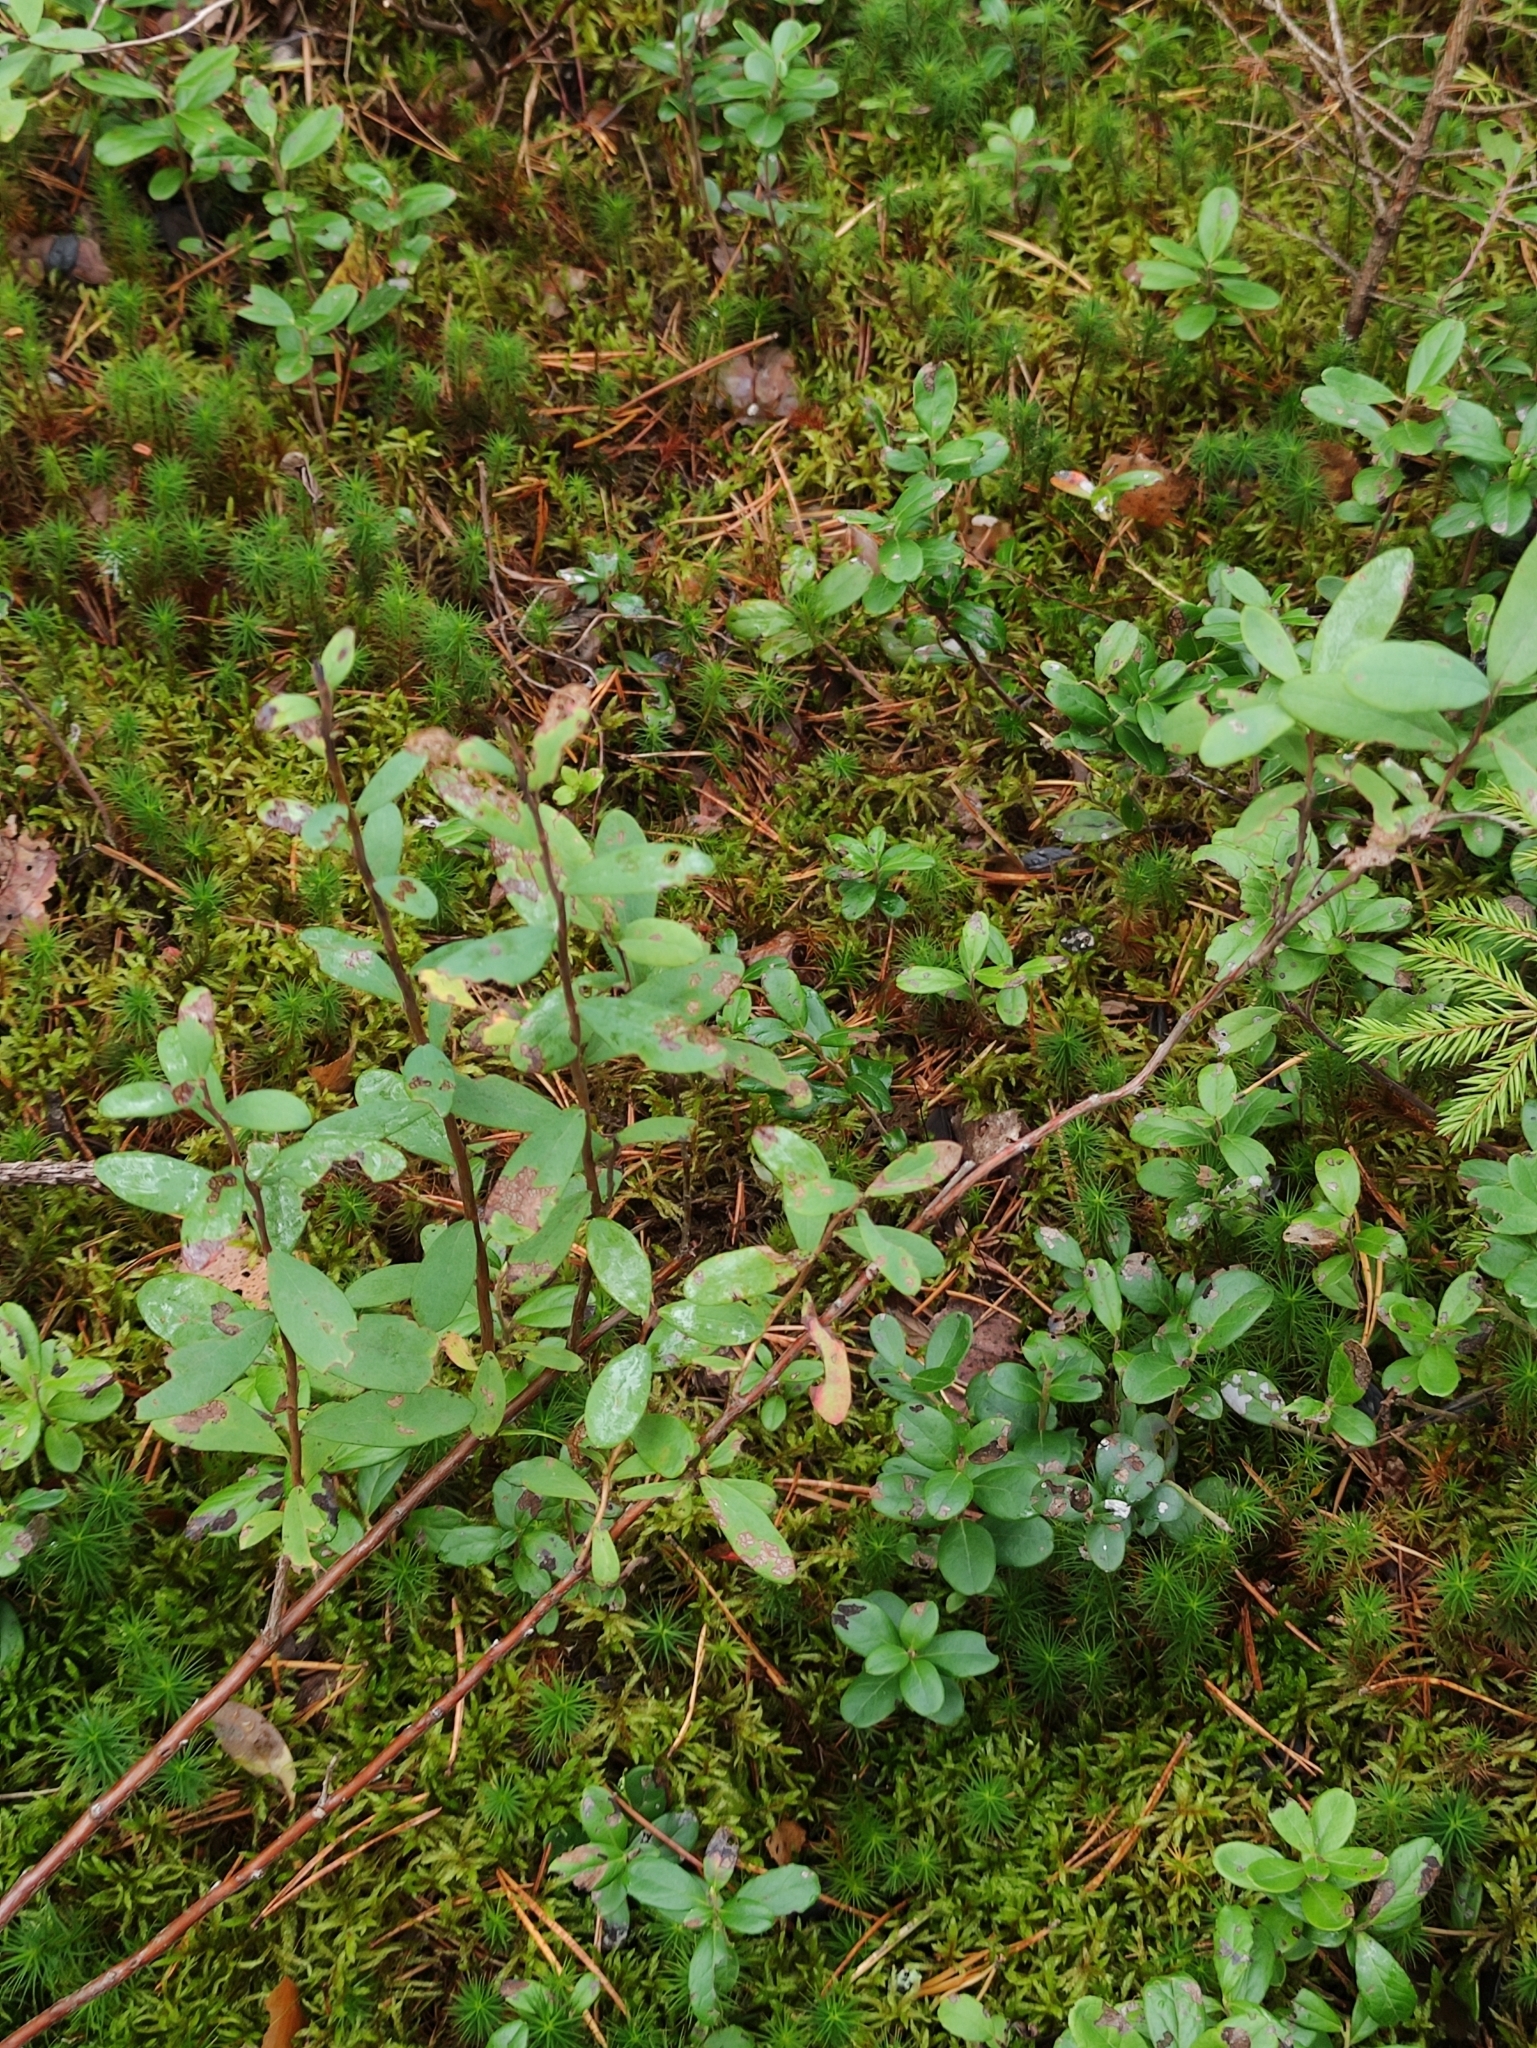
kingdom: Plantae
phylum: Tracheophyta
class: Magnoliopsida
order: Ericales
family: Ericaceae
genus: Vaccinium
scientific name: Vaccinium uliginosum
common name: Bog bilberry
